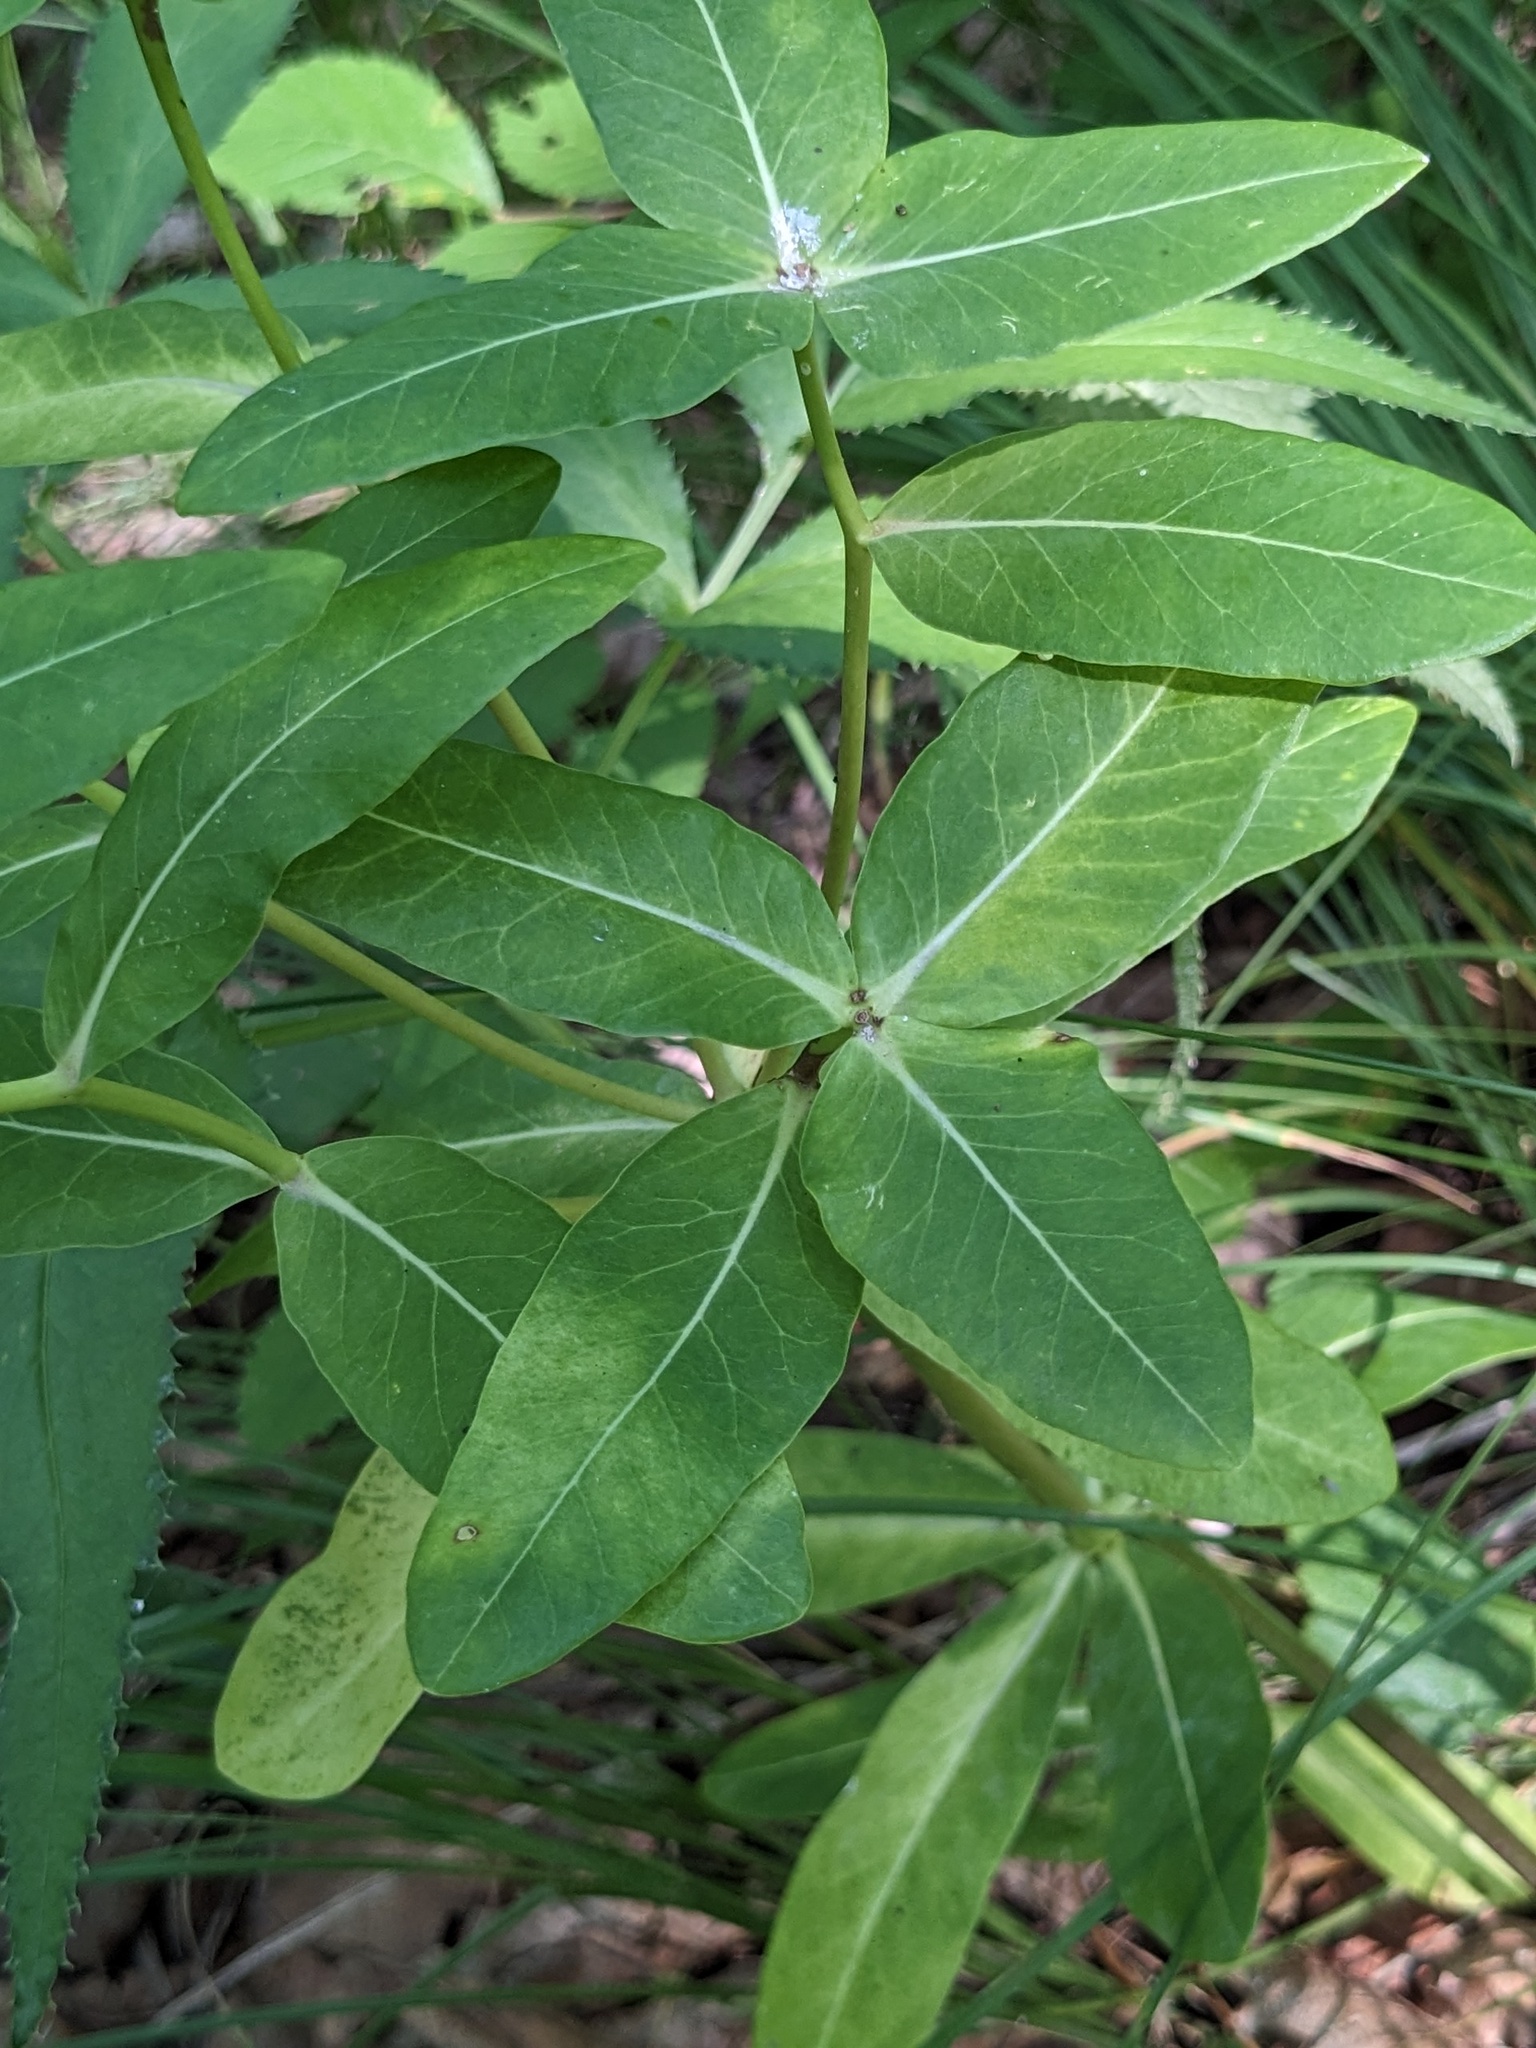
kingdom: Plantae
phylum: Tracheophyta
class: Magnoliopsida
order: Malpighiales
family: Euphorbiaceae
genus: Euphorbia
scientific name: Euphorbia hylonoma
